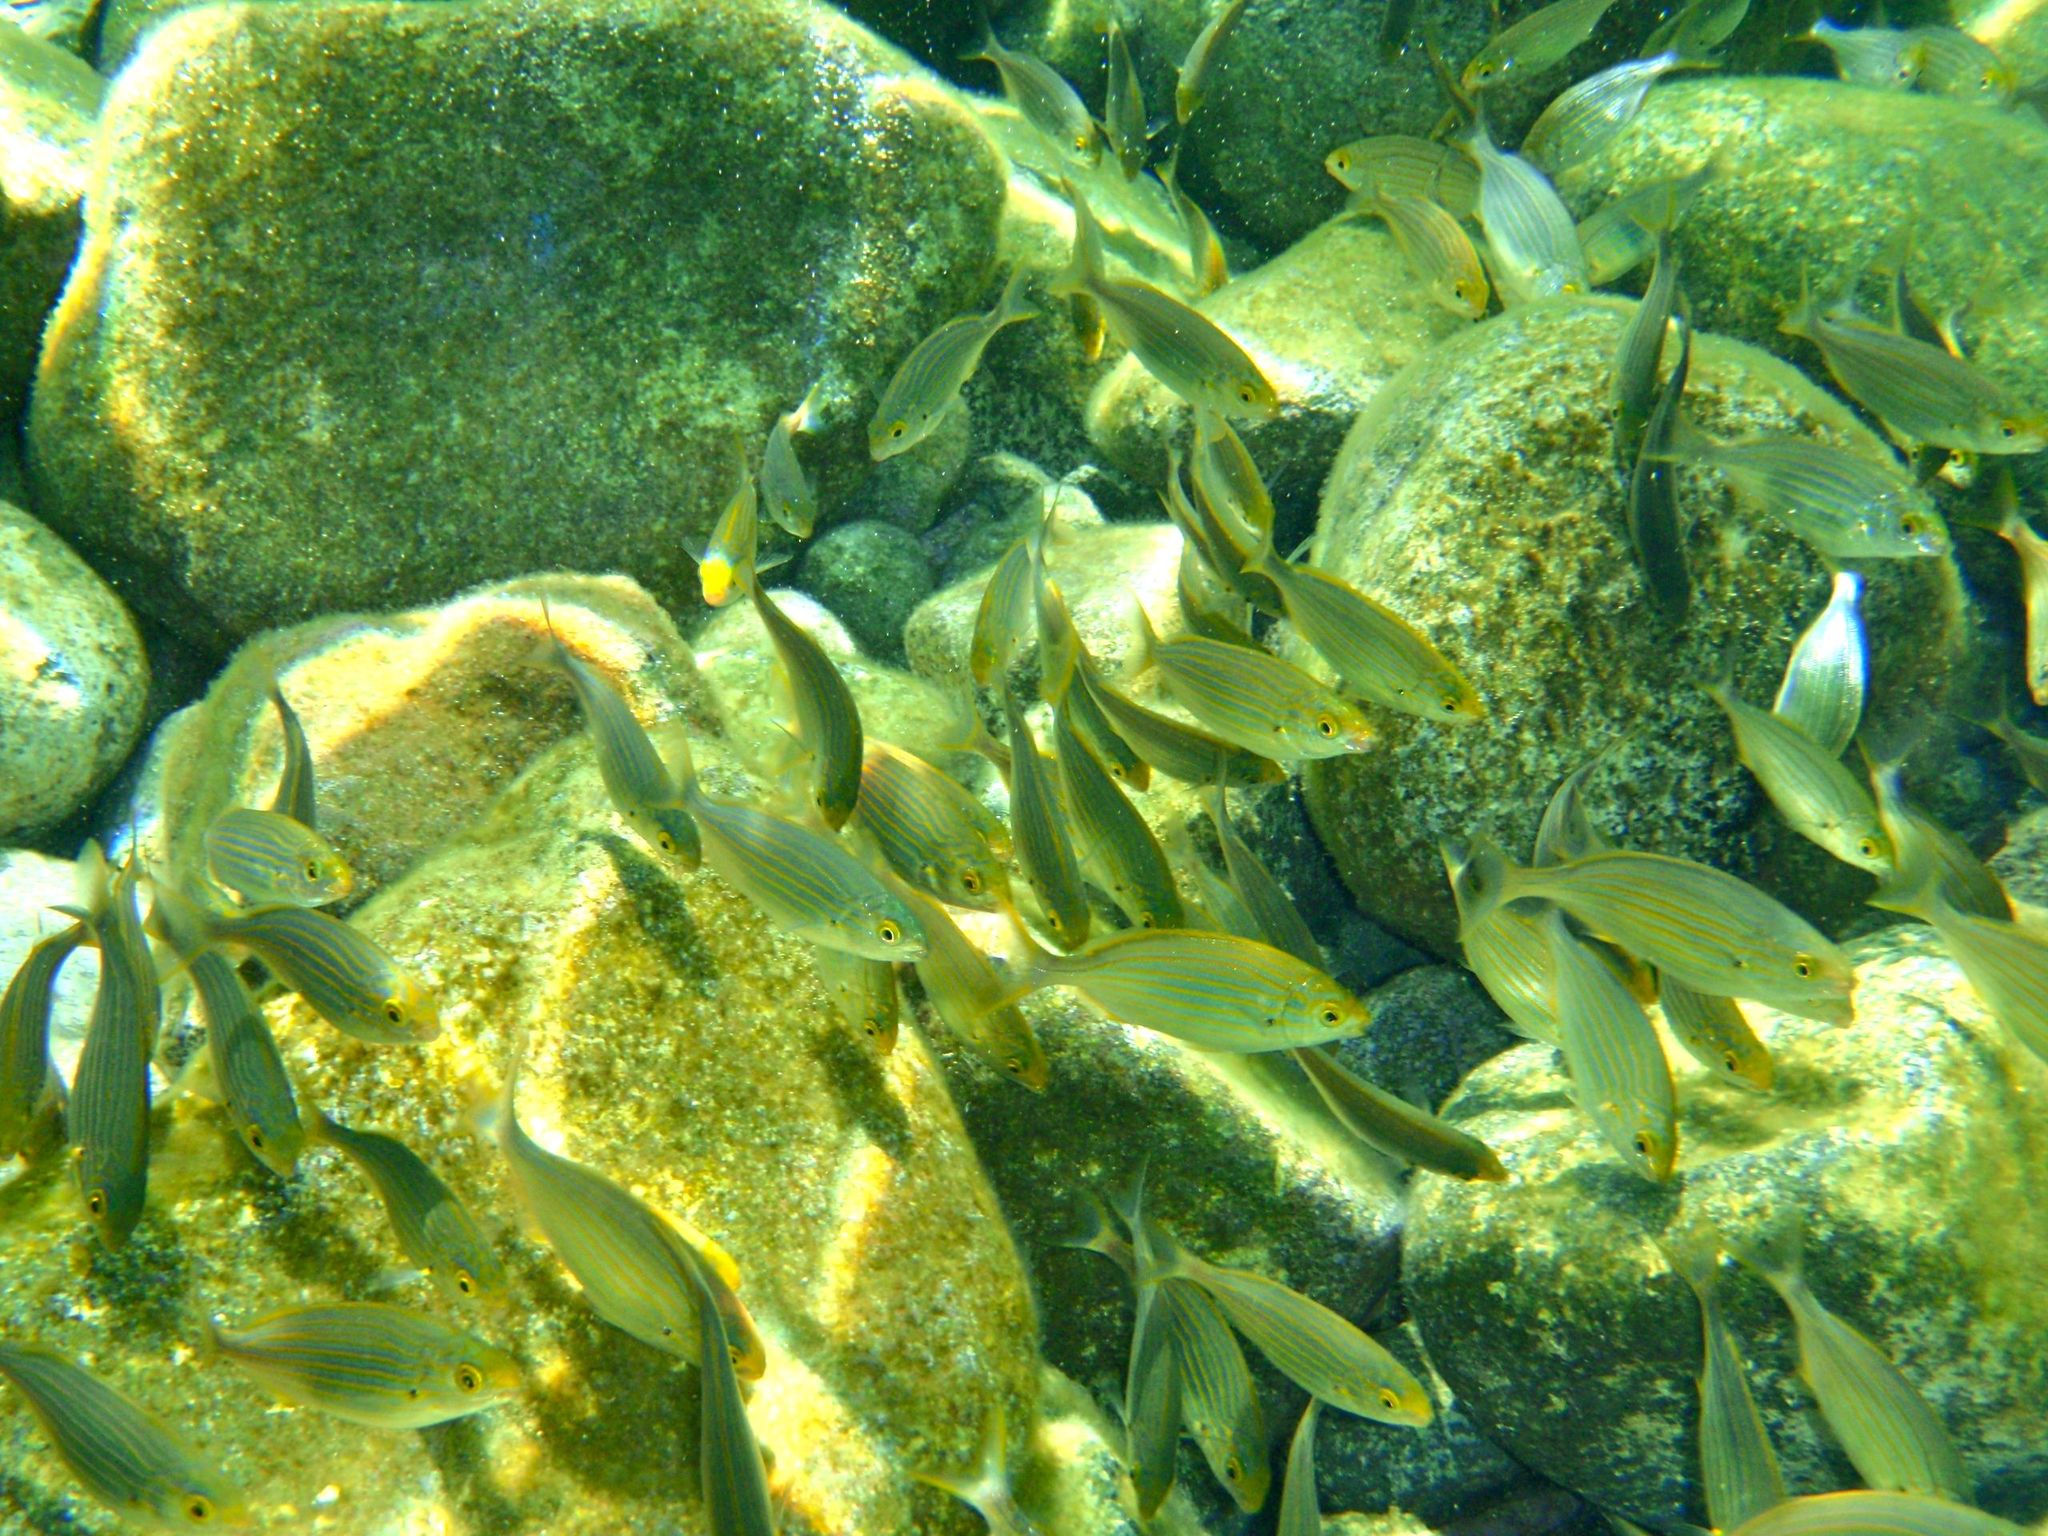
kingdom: Animalia
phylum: Chordata
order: Perciformes
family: Sparidae
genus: Sarpa
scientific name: Sarpa salpa
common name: Salema
